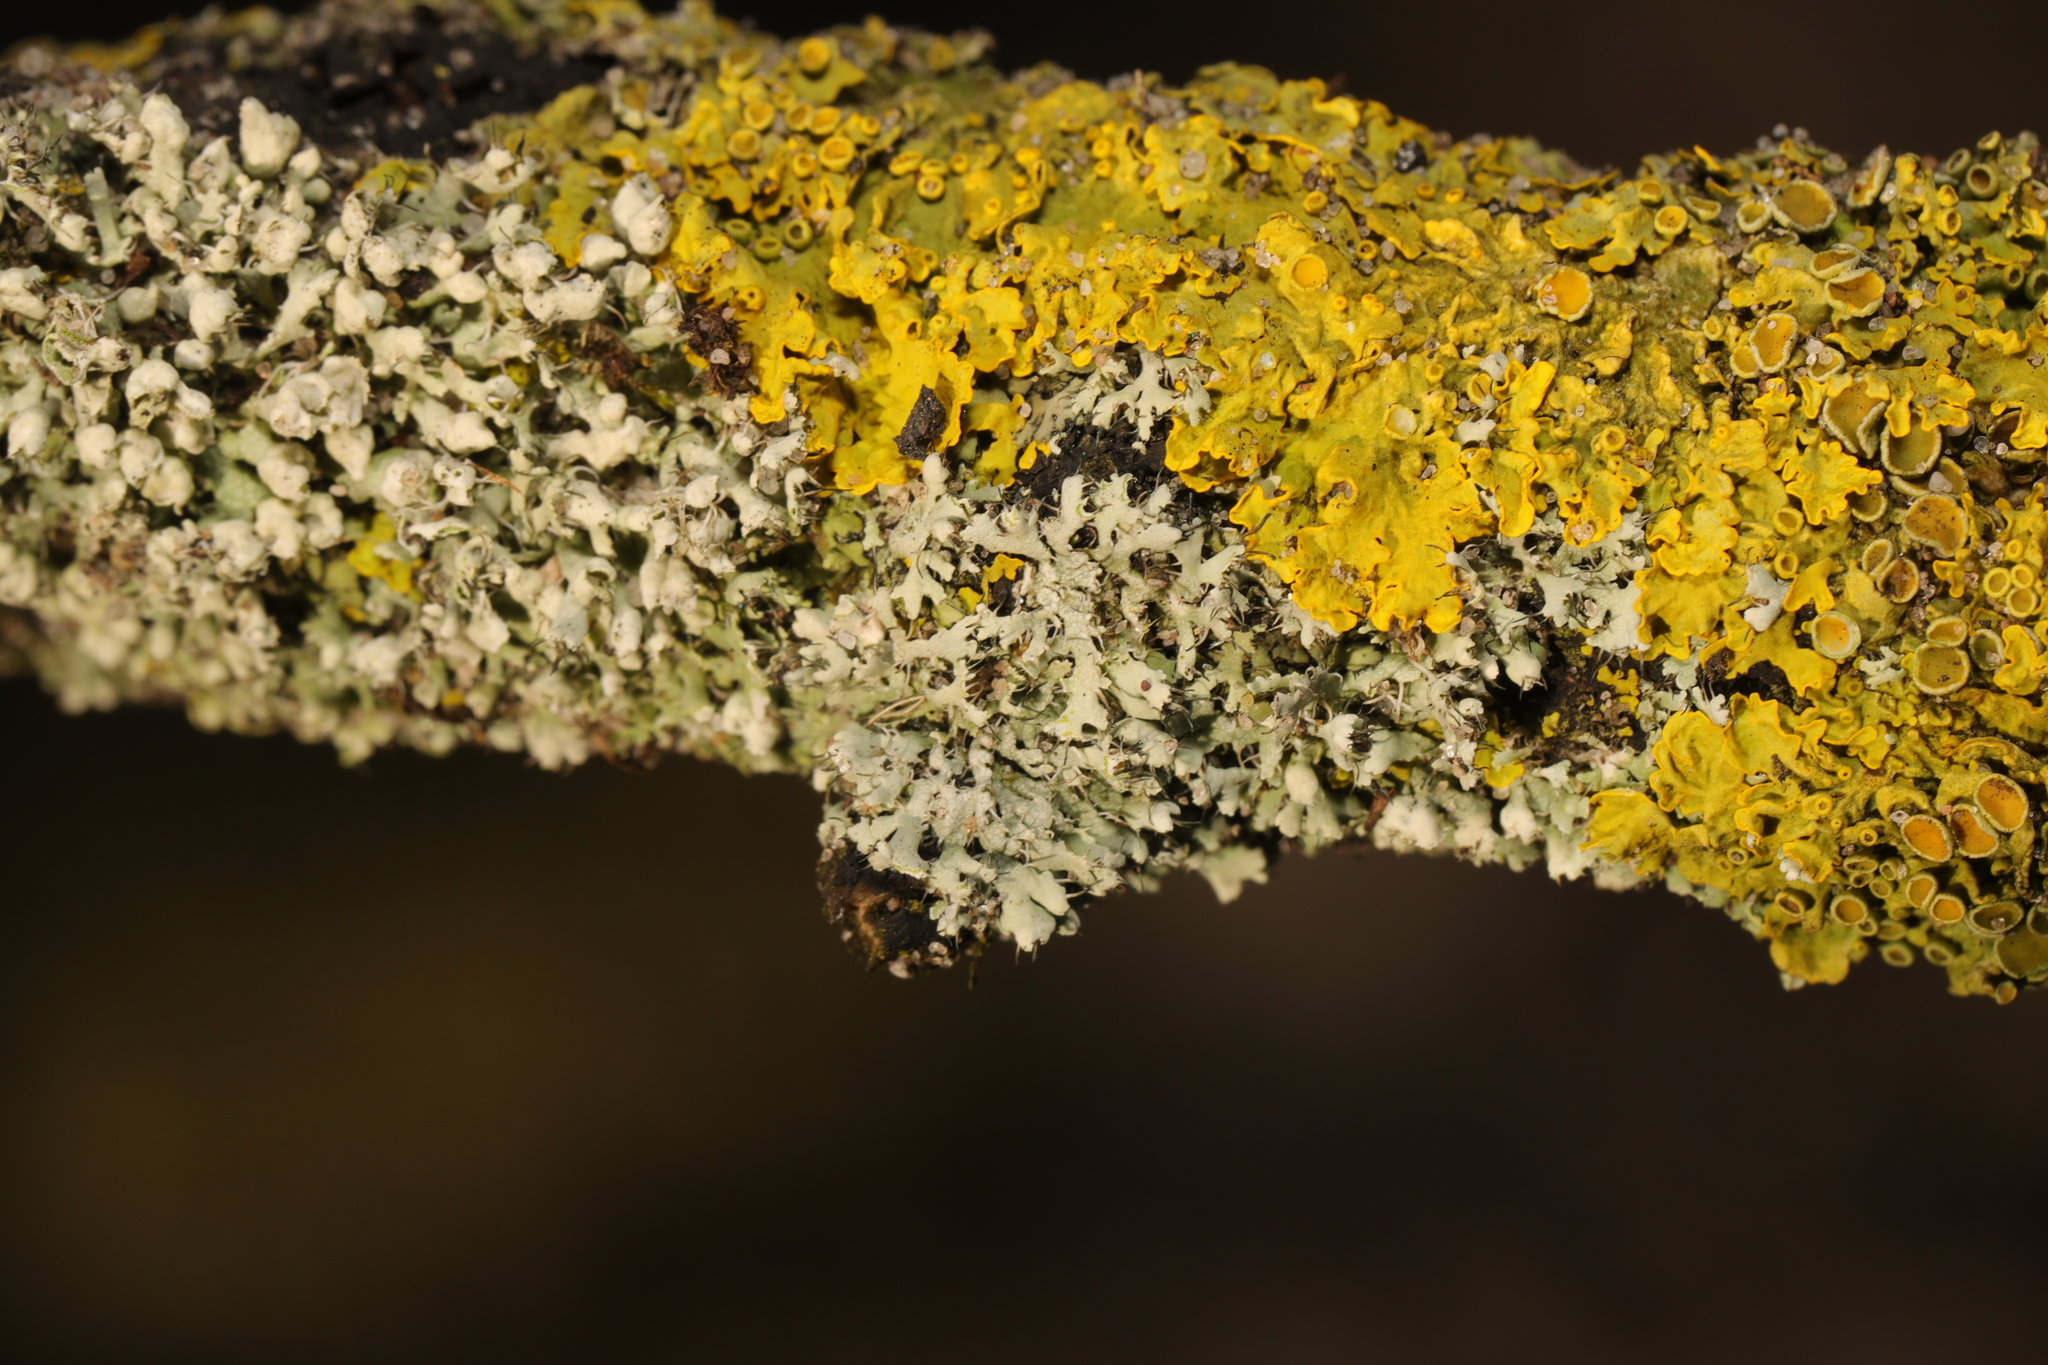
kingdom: Fungi
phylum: Ascomycota
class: Lecanoromycetes
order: Caliciales
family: Physciaceae
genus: Physcia
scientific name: Physcia adscendens
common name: Hooded rosette lichen
